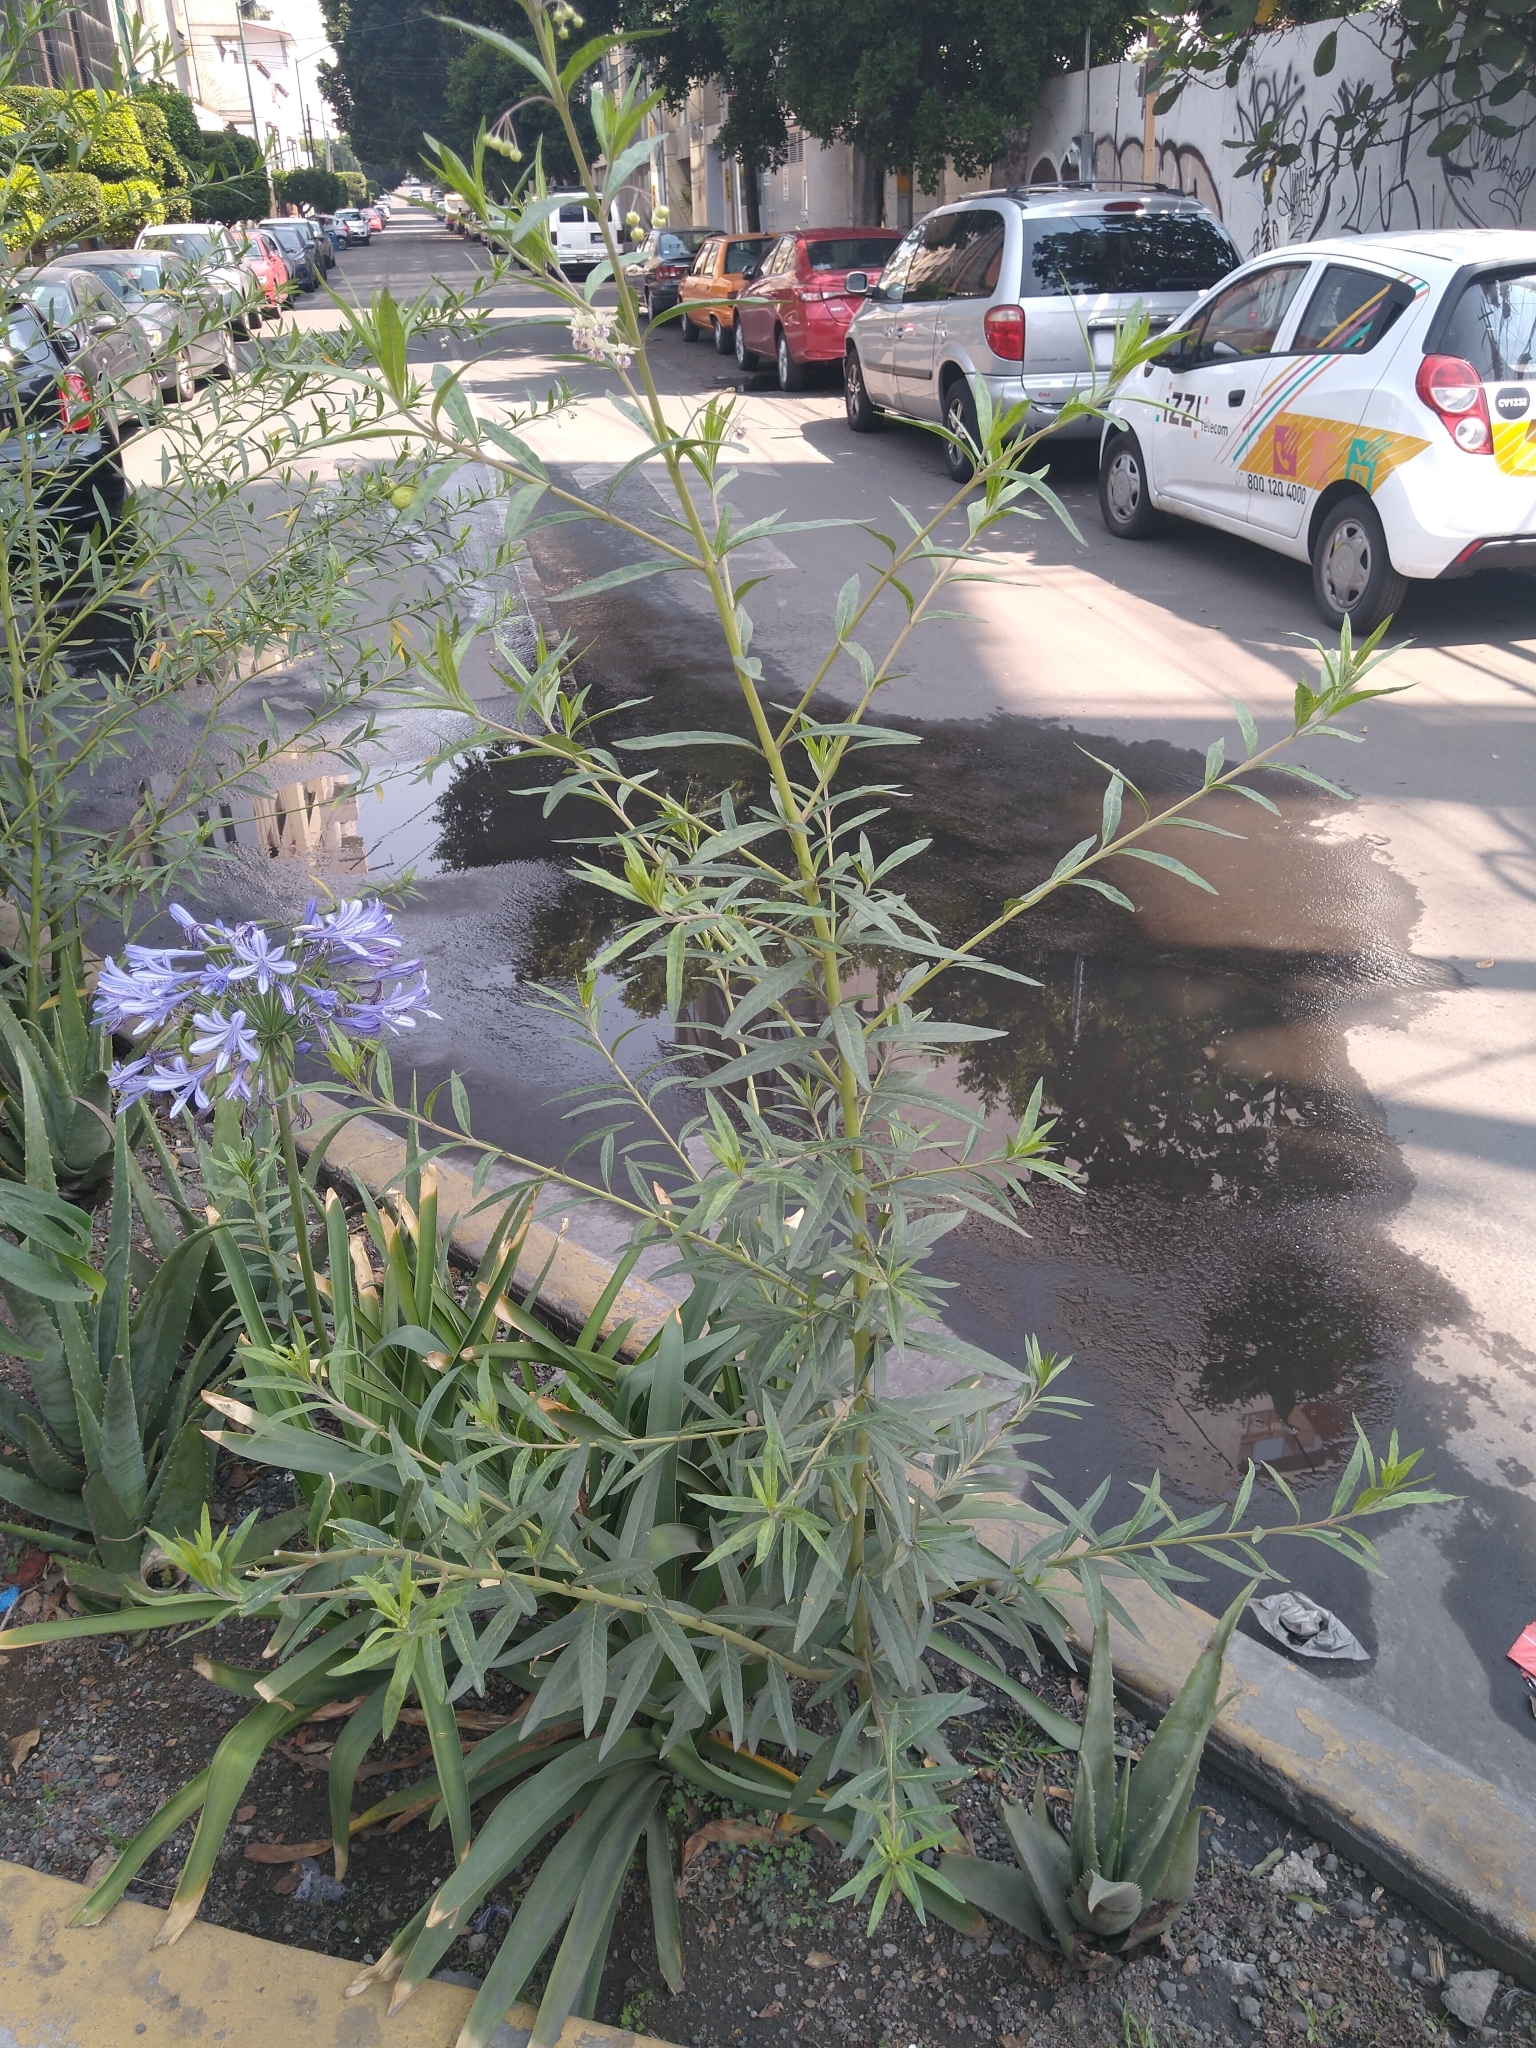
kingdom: Plantae
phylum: Tracheophyta
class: Magnoliopsida
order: Gentianales
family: Apocynaceae
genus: Gomphocarpus
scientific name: Gomphocarpus physocarpus
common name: Balloon cotton bush
